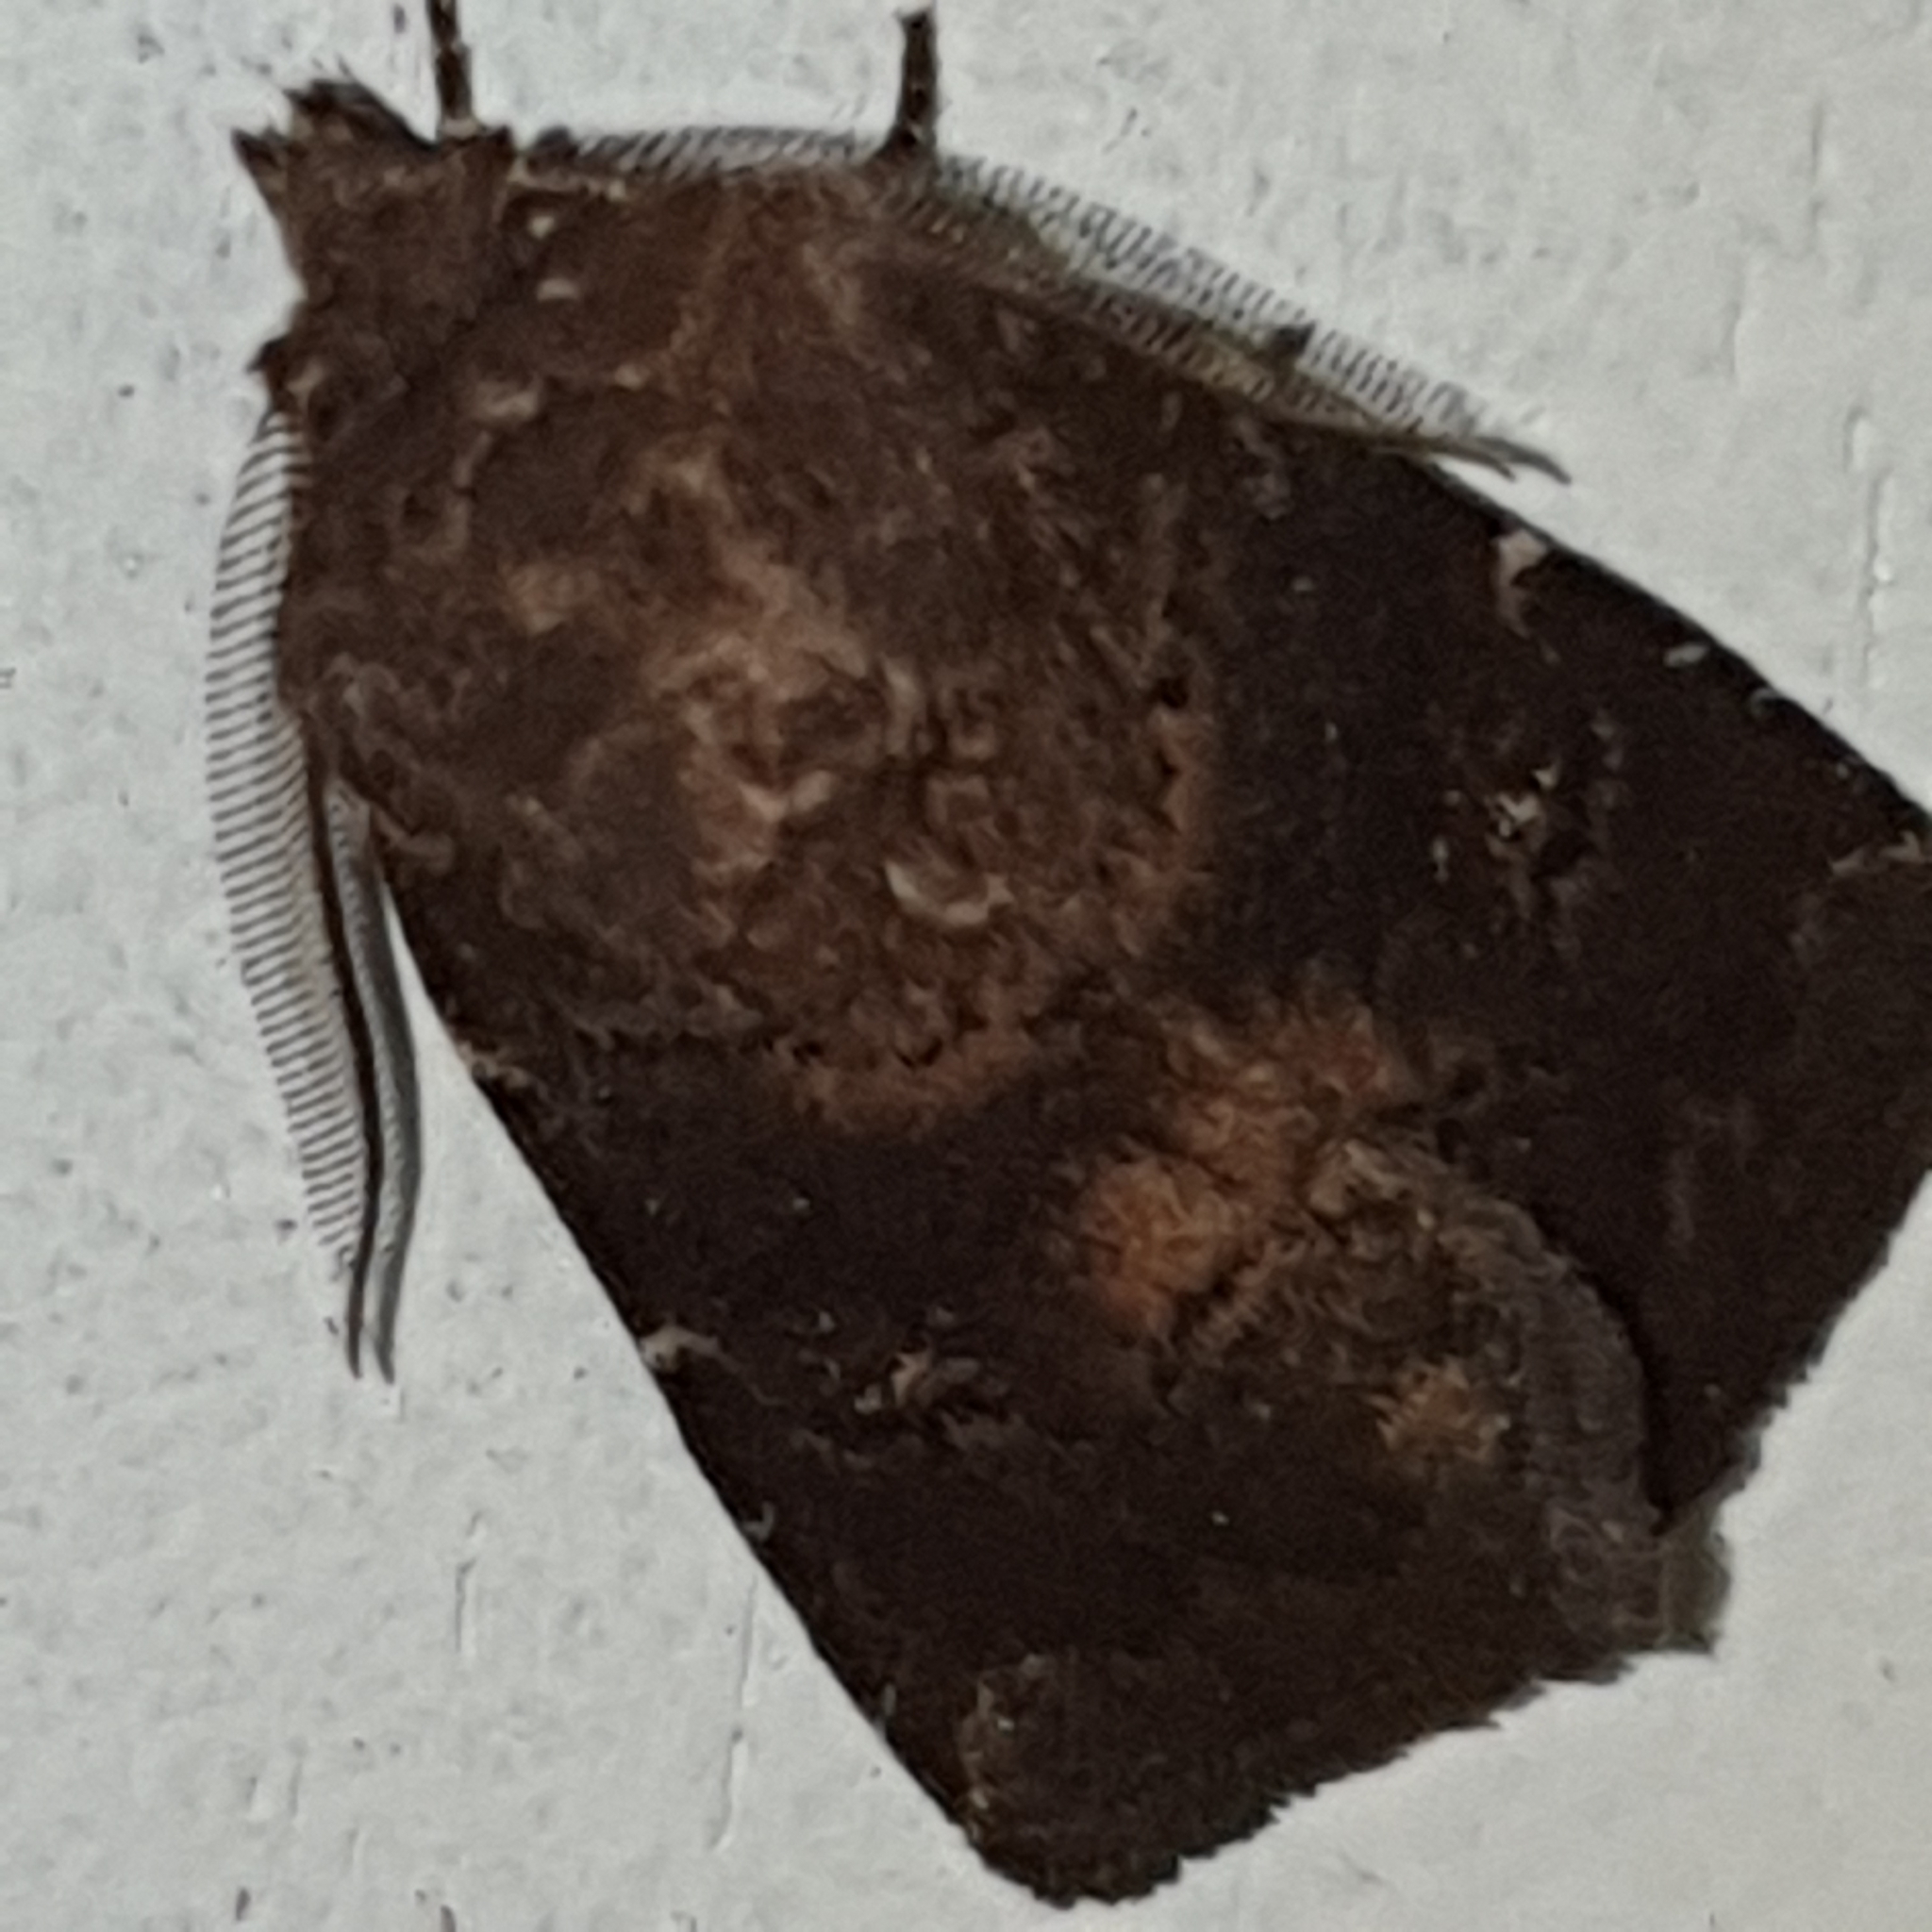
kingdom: Animalia
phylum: Arthropoda
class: Insecta
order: Lepidoptera
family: Noctuidae
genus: Charanyca
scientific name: Charanyca ferruginea
